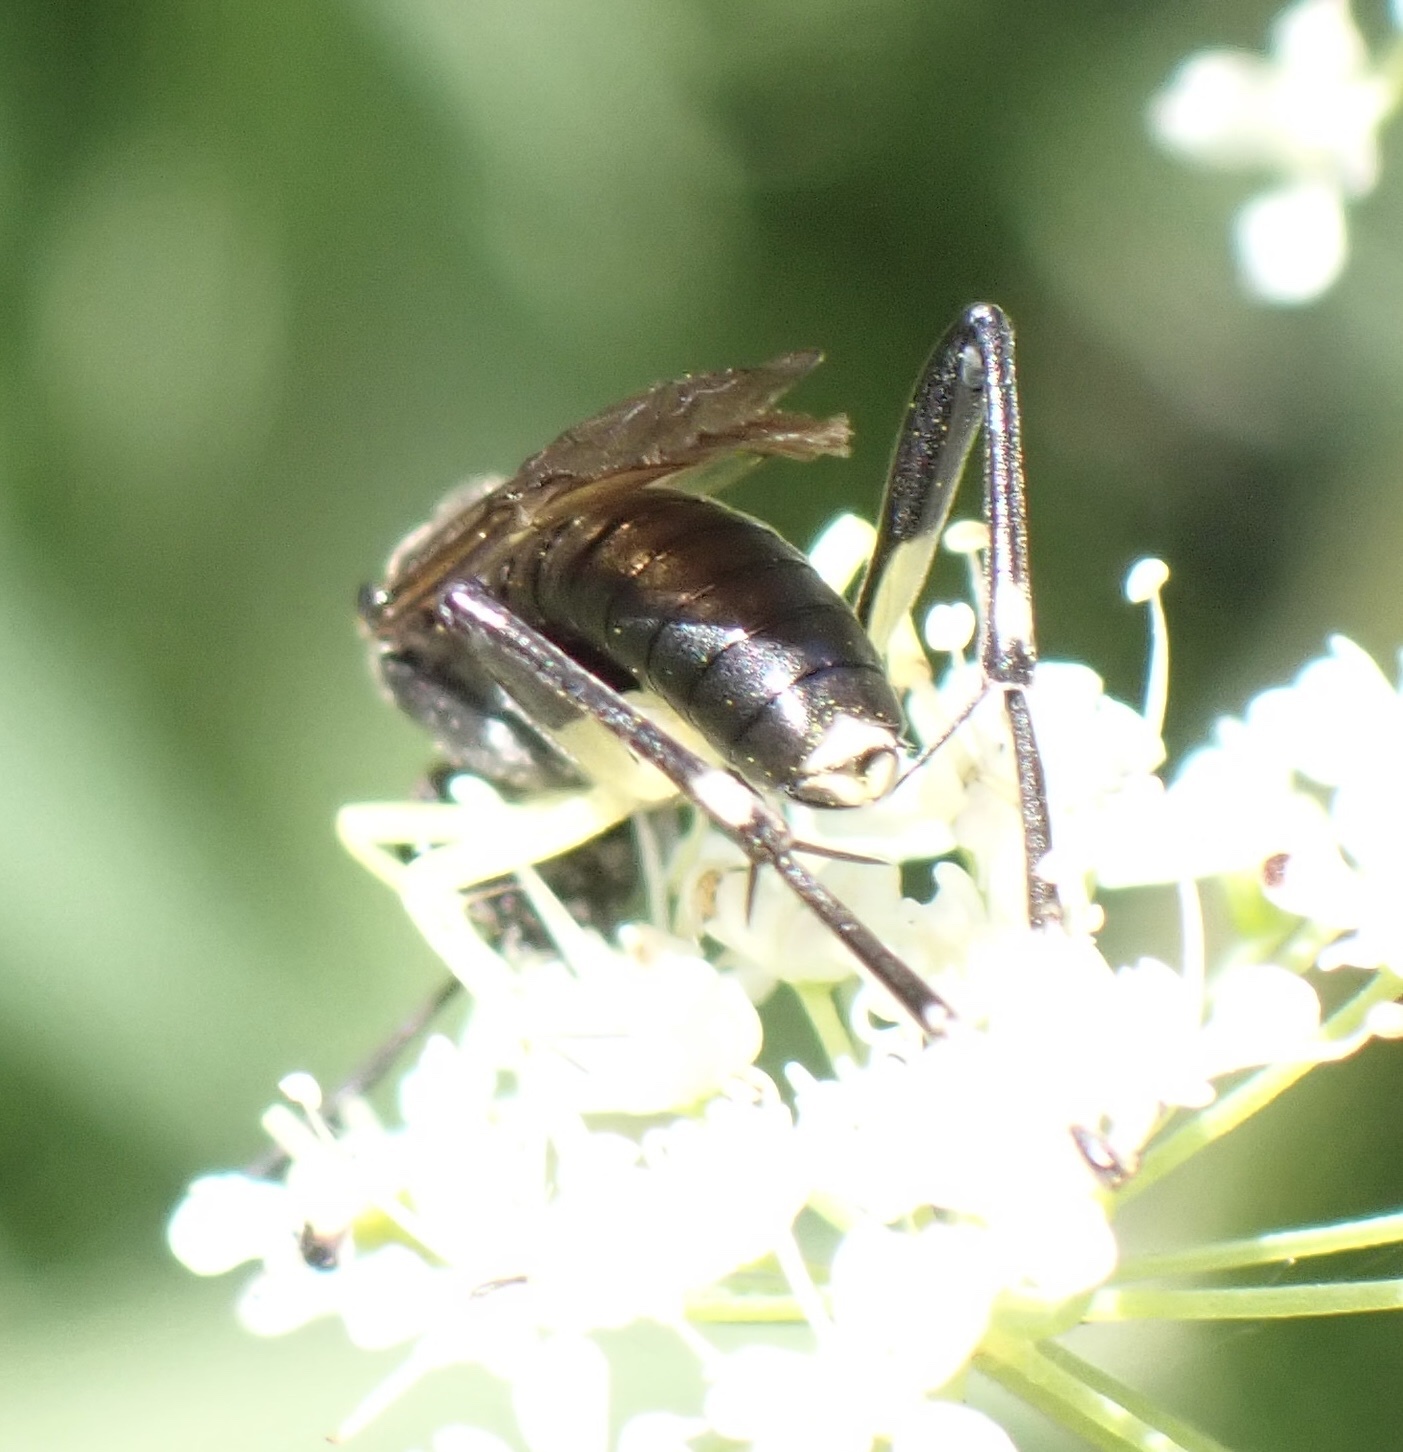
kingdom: Animalia
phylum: Arthropoda
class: Insecta
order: Hymenoptera
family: Tenthredinidae
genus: Macrophya
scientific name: Macrophya montana
